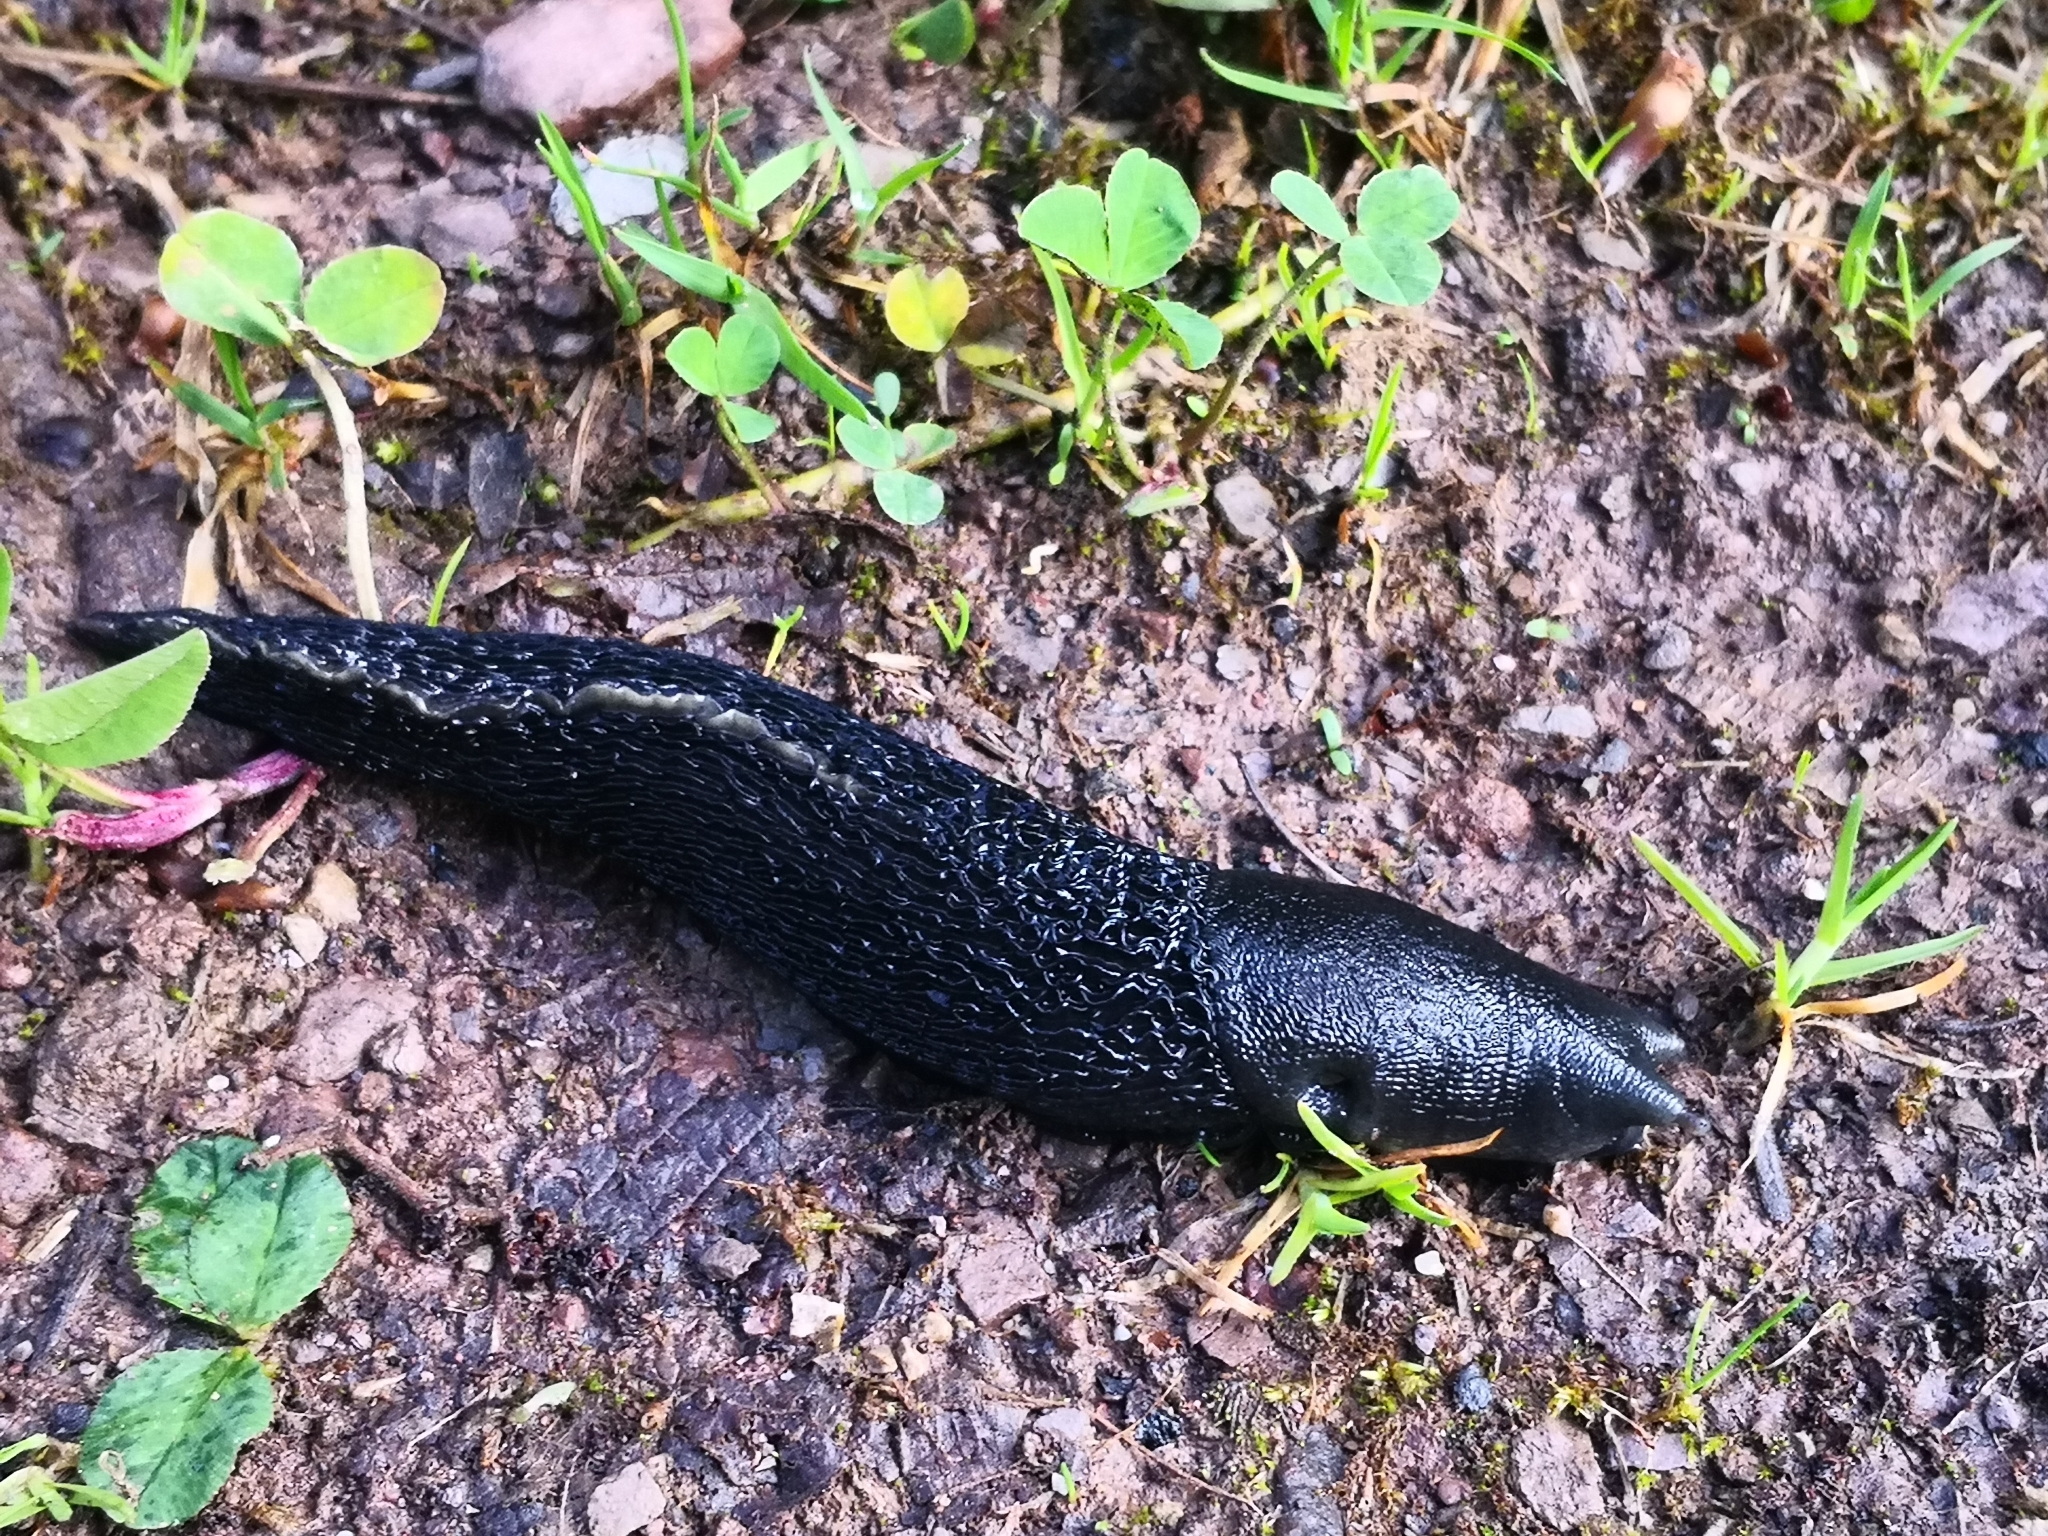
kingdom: Animalia
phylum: Mollusca
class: Gastropoda
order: Stylommatophora
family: Limacidae
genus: Limax
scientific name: Limax cinereoniger
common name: Ash-black slug
